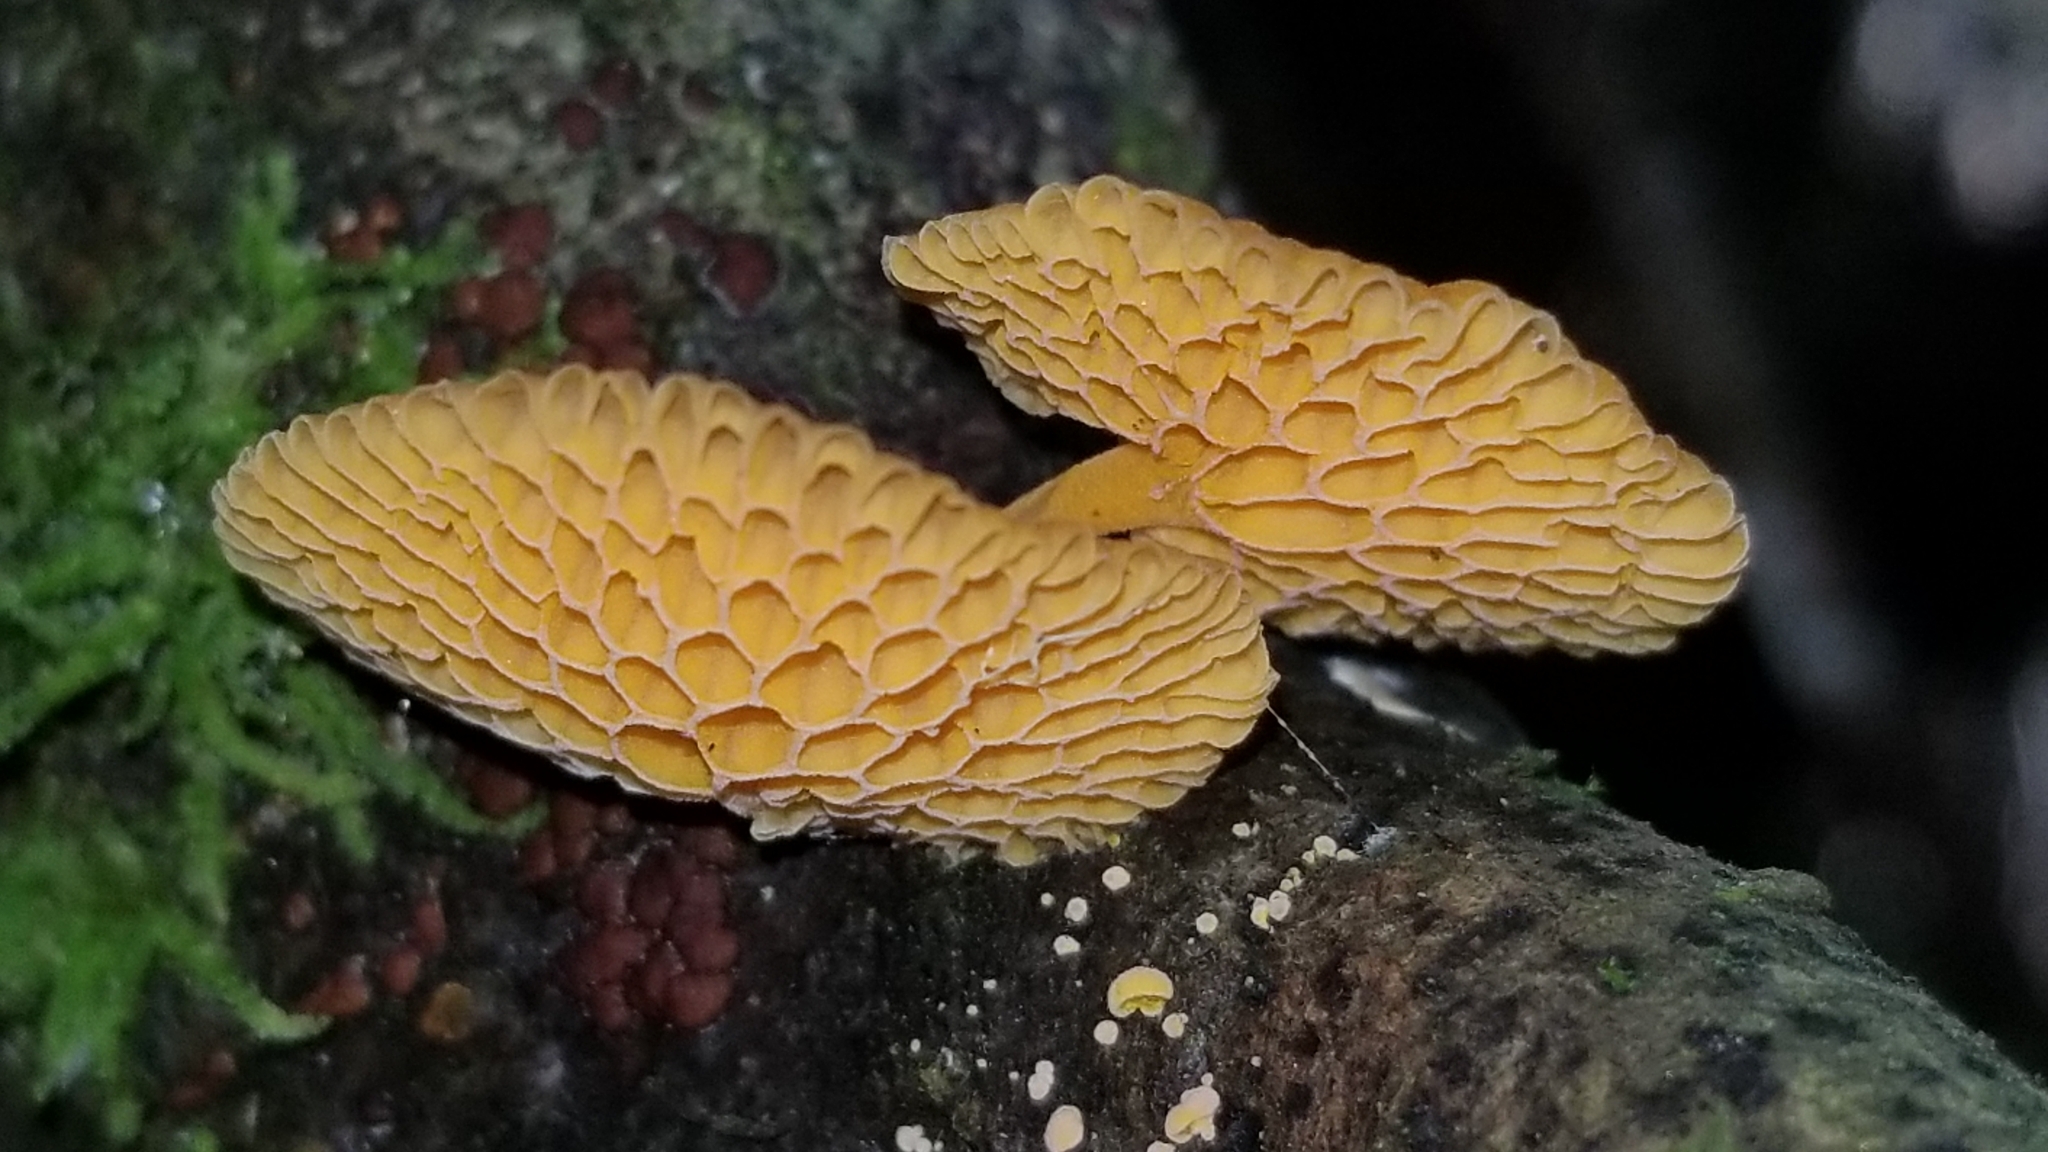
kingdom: Fungi
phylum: Basidiomycota
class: Agaricomycetes
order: Agaricales
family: Mycenaceae
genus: Favolaschia
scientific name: Favolaschia claudopus
